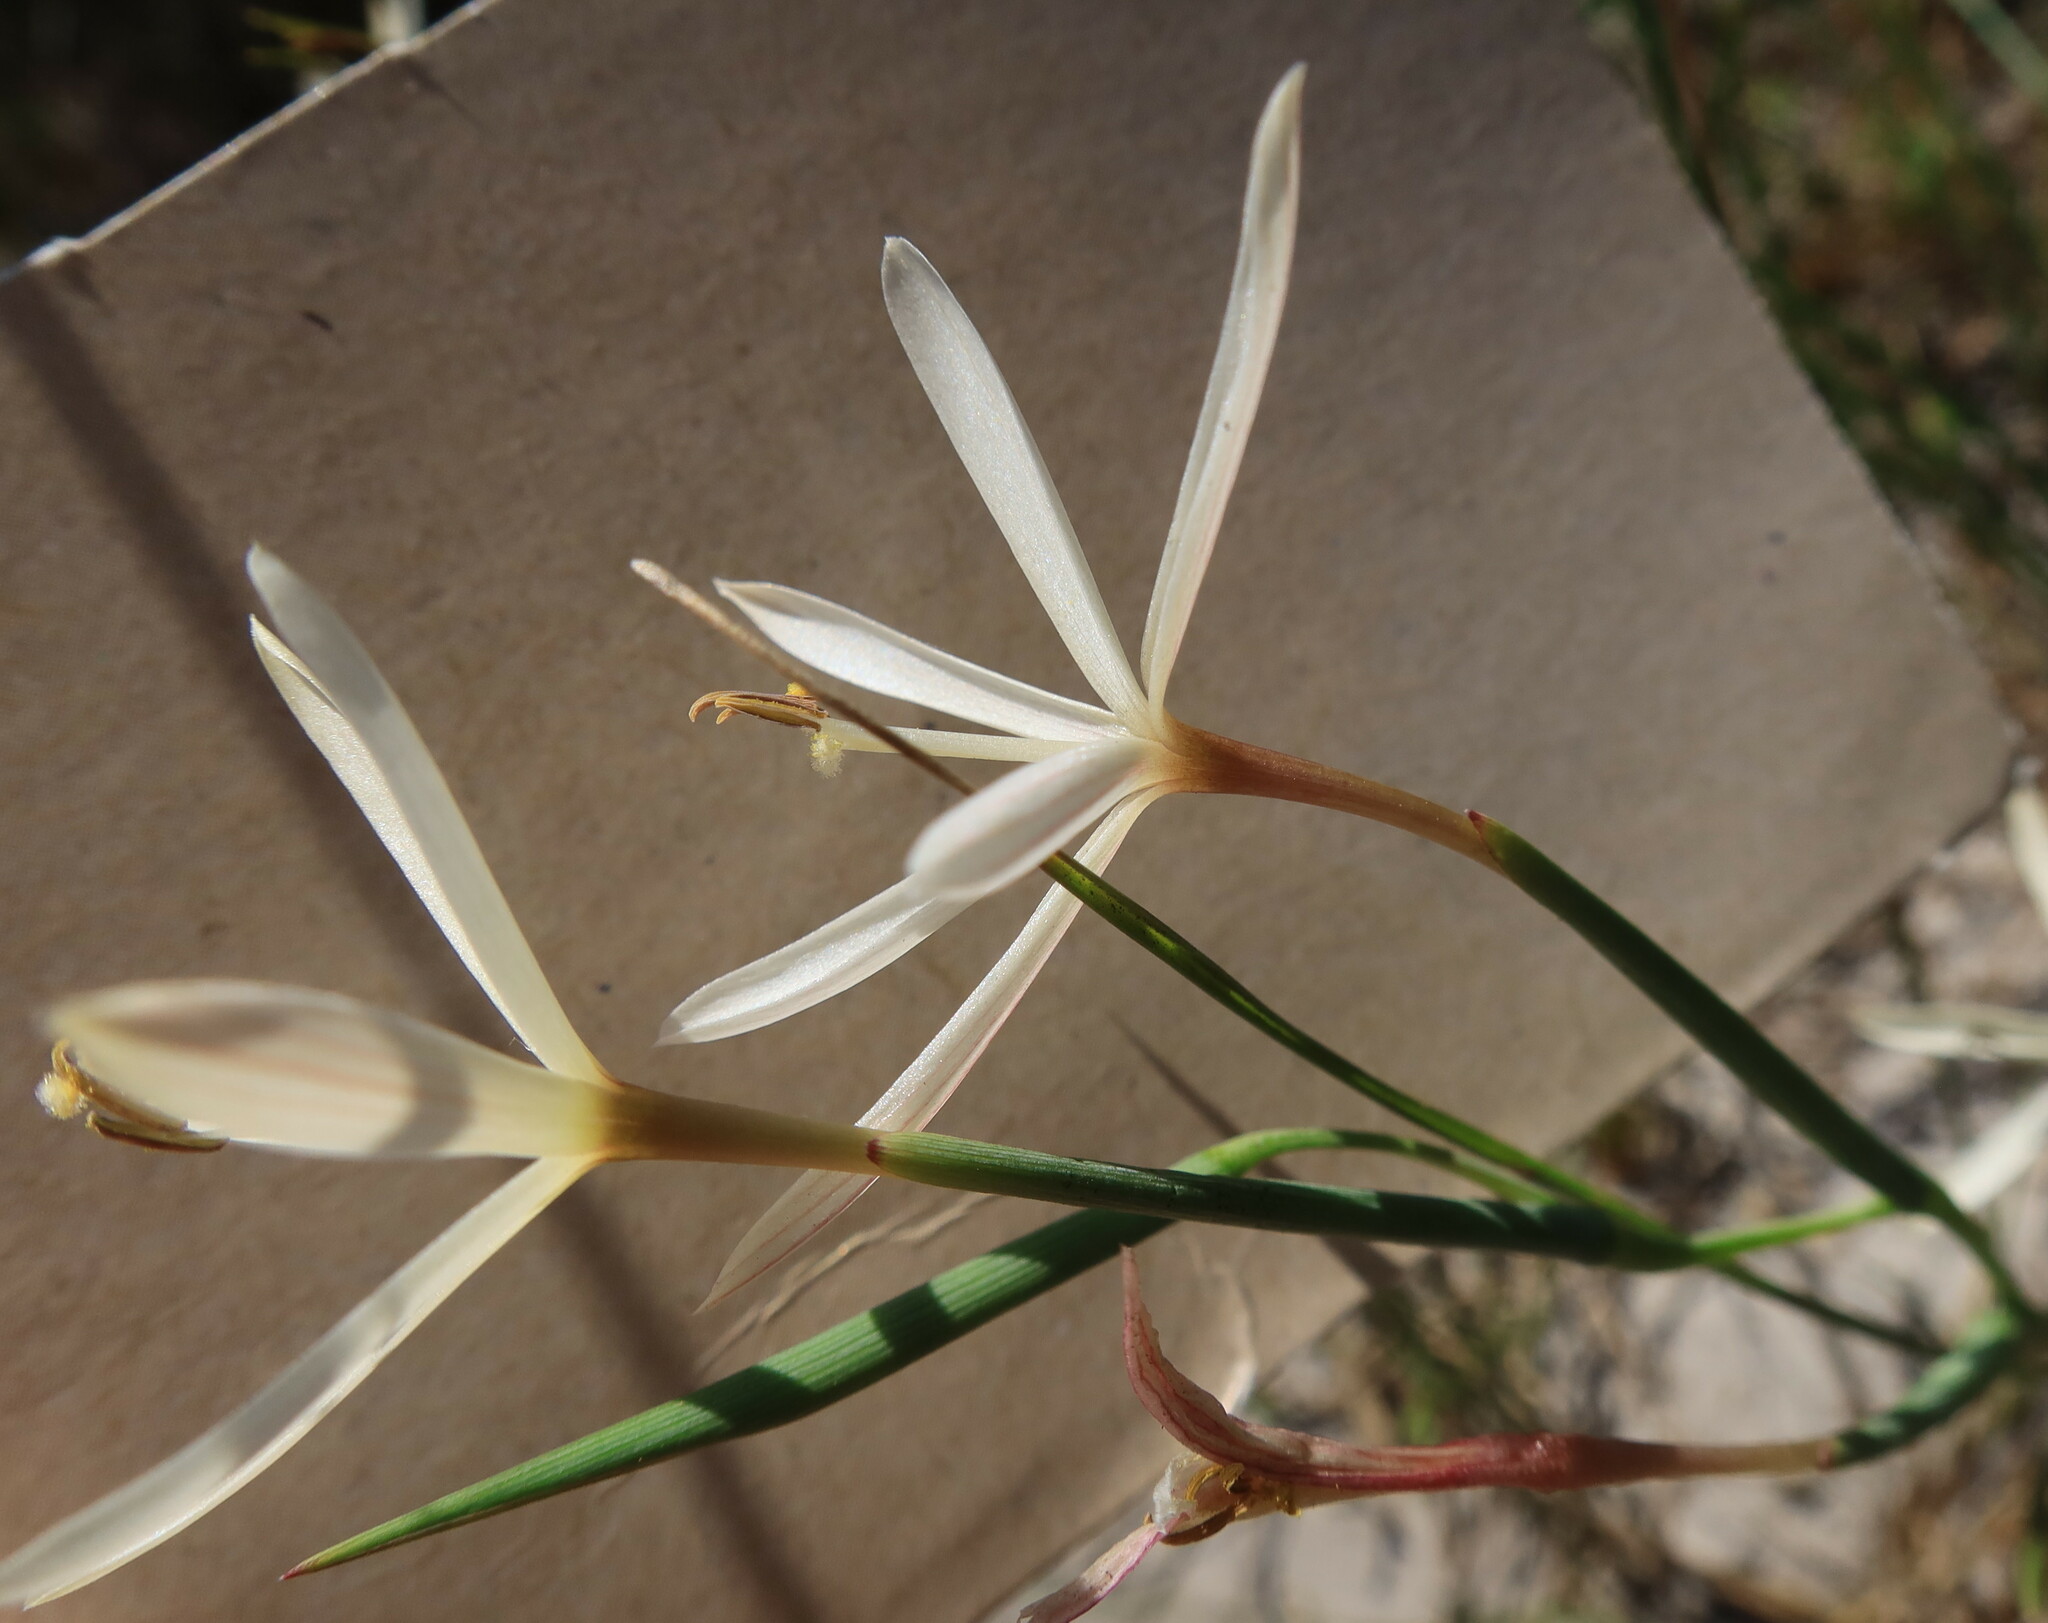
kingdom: Plantae
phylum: Tracheophyta
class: Liliopsida
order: Asparagales
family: Iridaceae
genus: Geissorhiza
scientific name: Geissorhiza tenella
